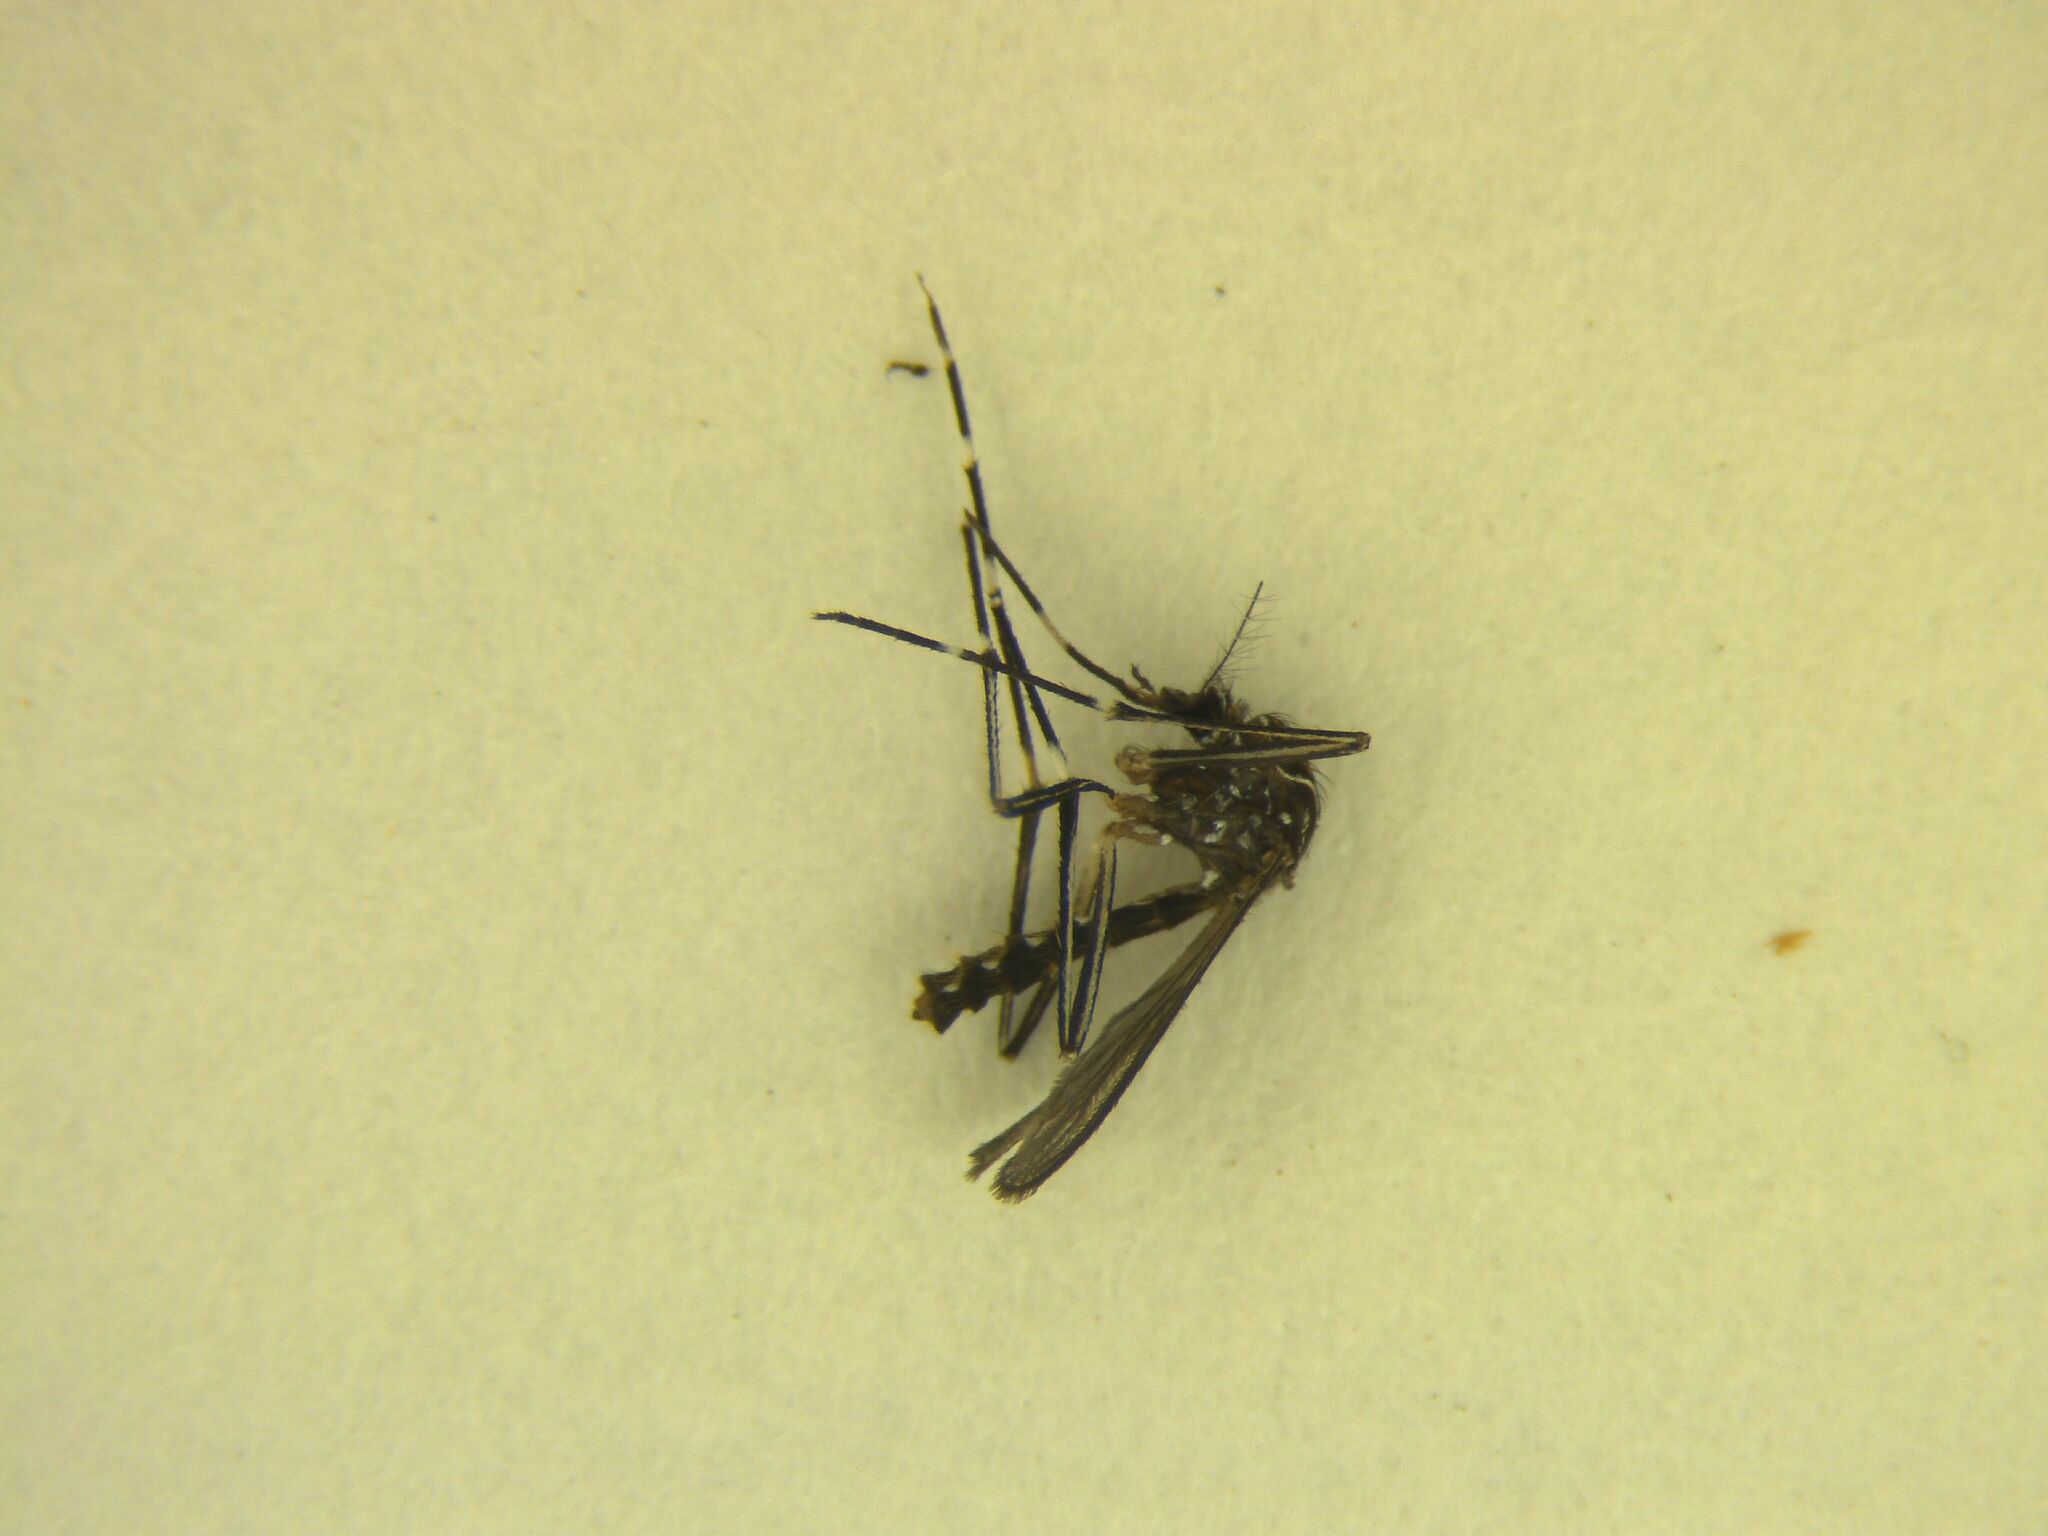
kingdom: Animalia
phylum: Arthropoda
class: Insecta
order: Diptera
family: Culicidae
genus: Aedes
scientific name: Aedes notoscriptus
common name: Australian backyard mosquito
